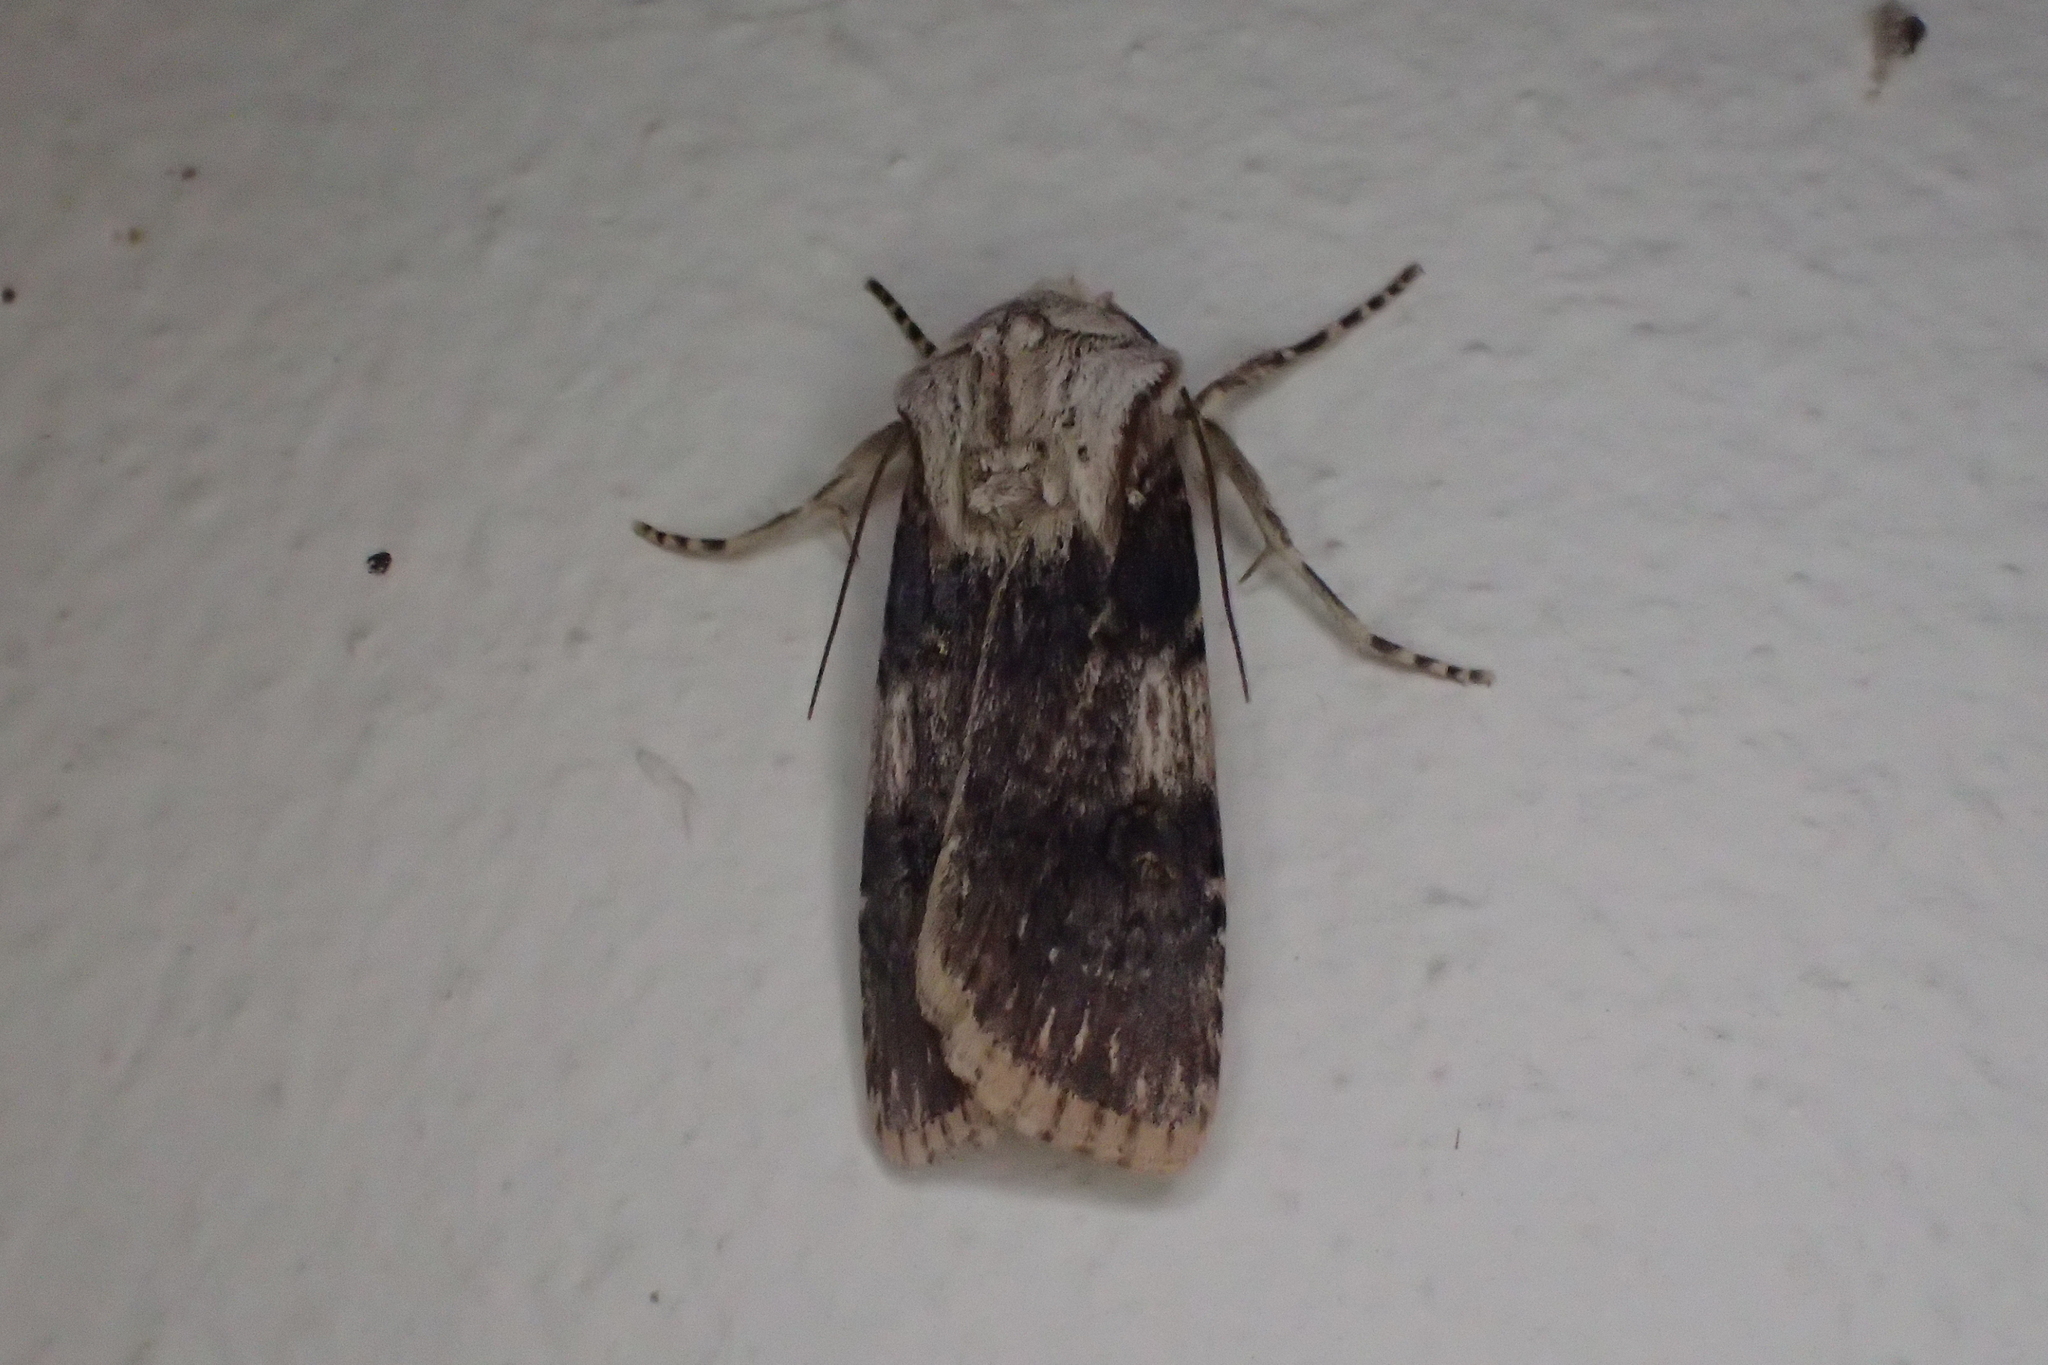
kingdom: Animalia
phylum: Arthropoda
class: Insecta
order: Lepidoptera
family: Noctuidae
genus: Agrotis
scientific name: Agrotis puta
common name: Shuttle-shaped dart
